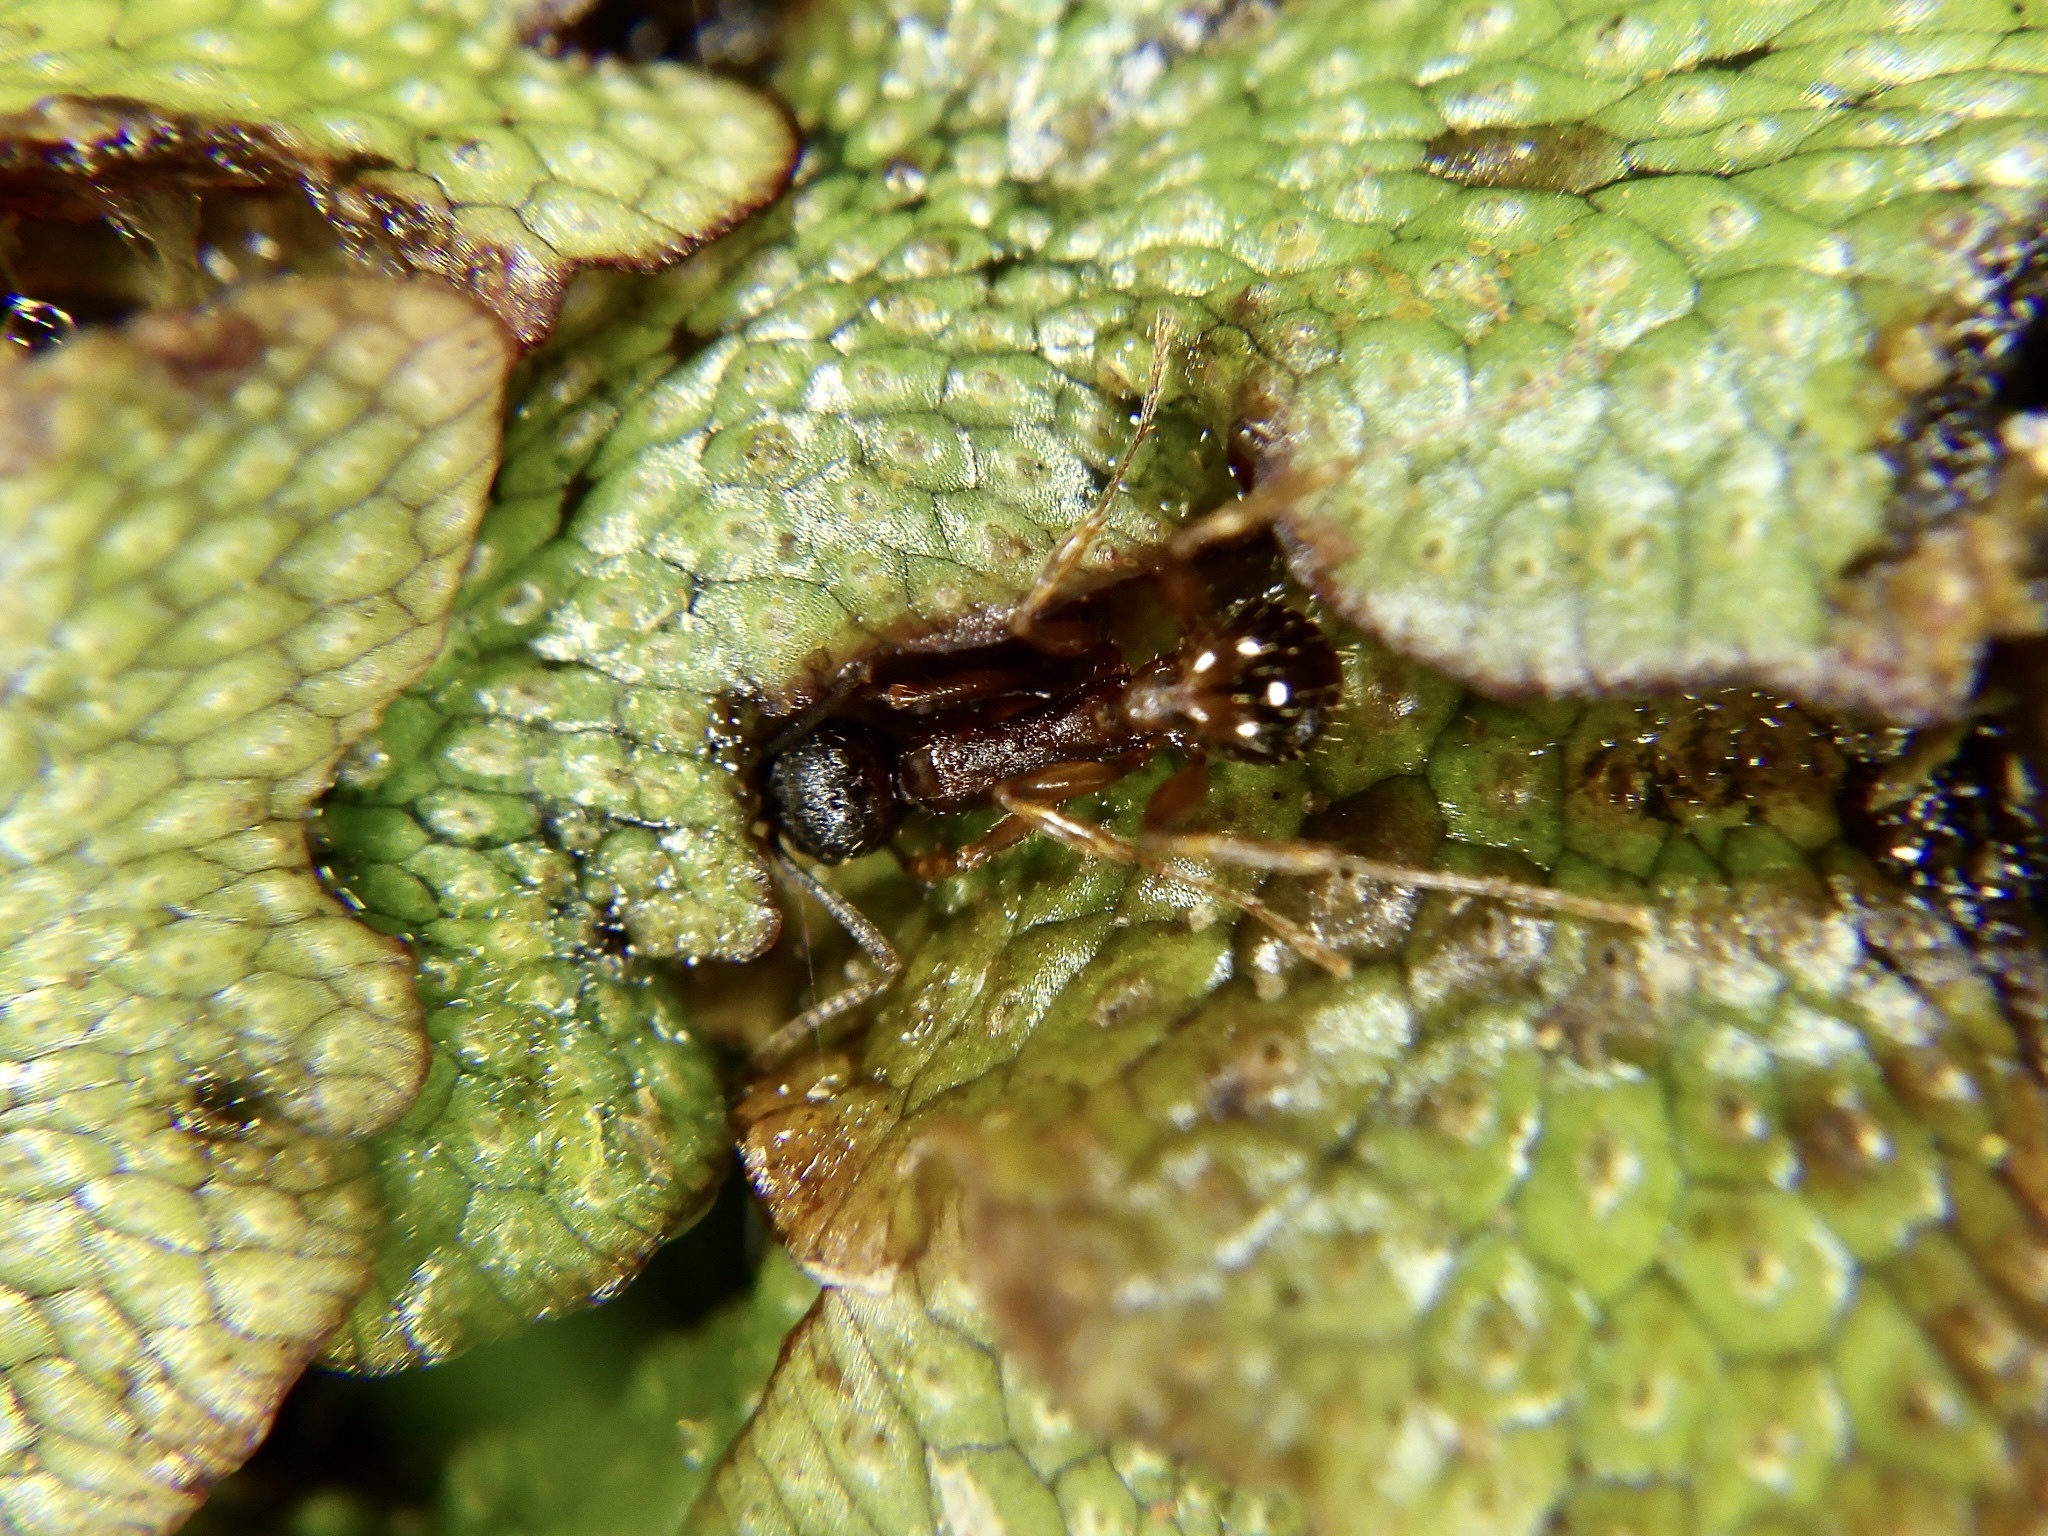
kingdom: Animalia
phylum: Arthropoda
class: Insecta
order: Hymenoptera
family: Formicidae
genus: Aphaenogaster
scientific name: Aphaenogaster japonica
